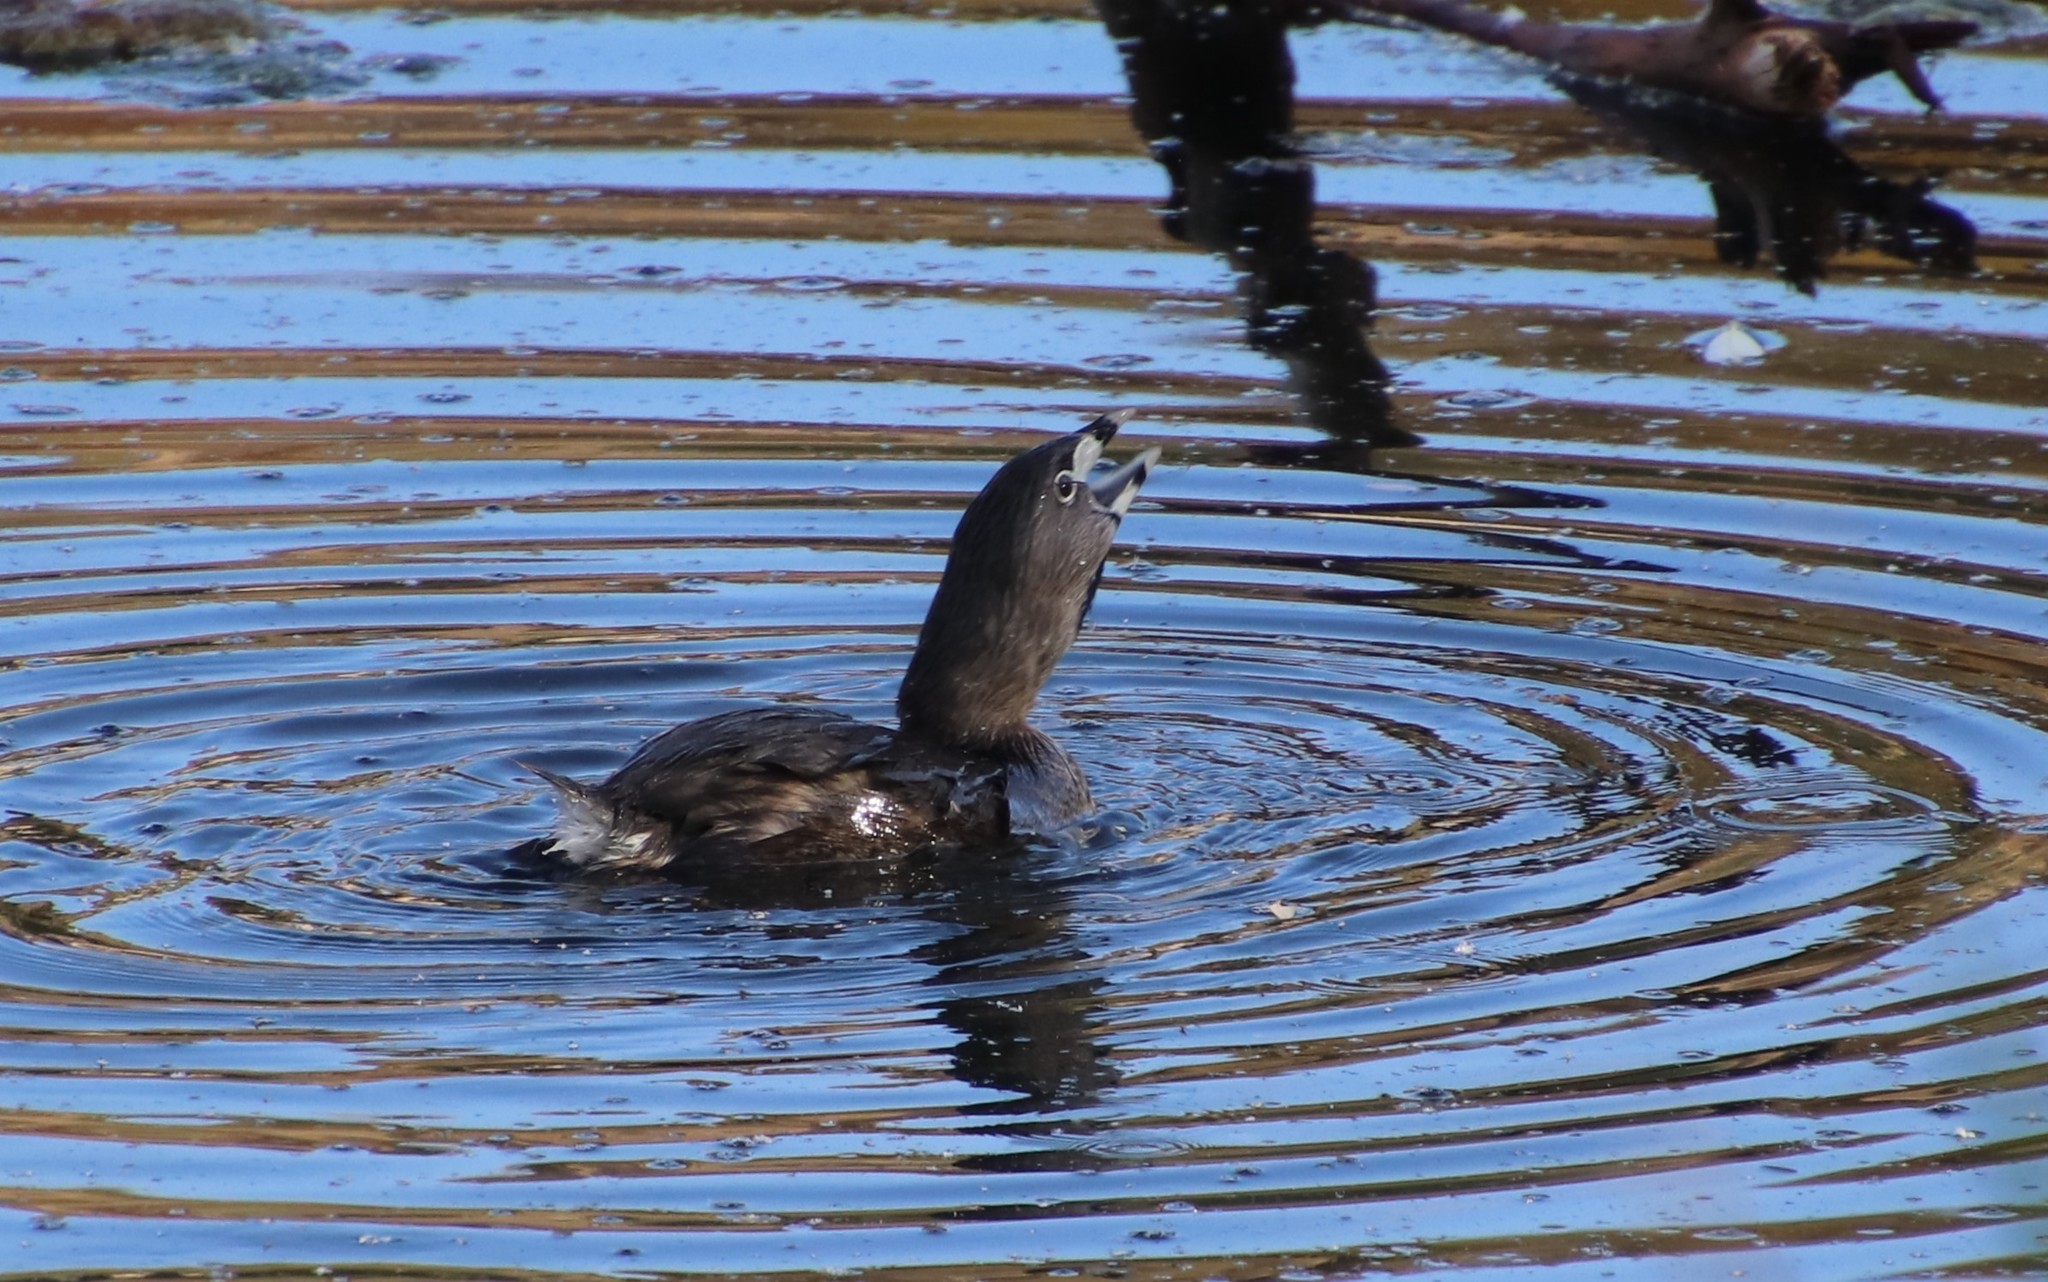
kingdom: Animalia
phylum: Chordata
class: Aves
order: Podicipediformes
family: Podicipedidae
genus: Podilymbus
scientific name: Podilymbus podiceps
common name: Pied-billed grebe
